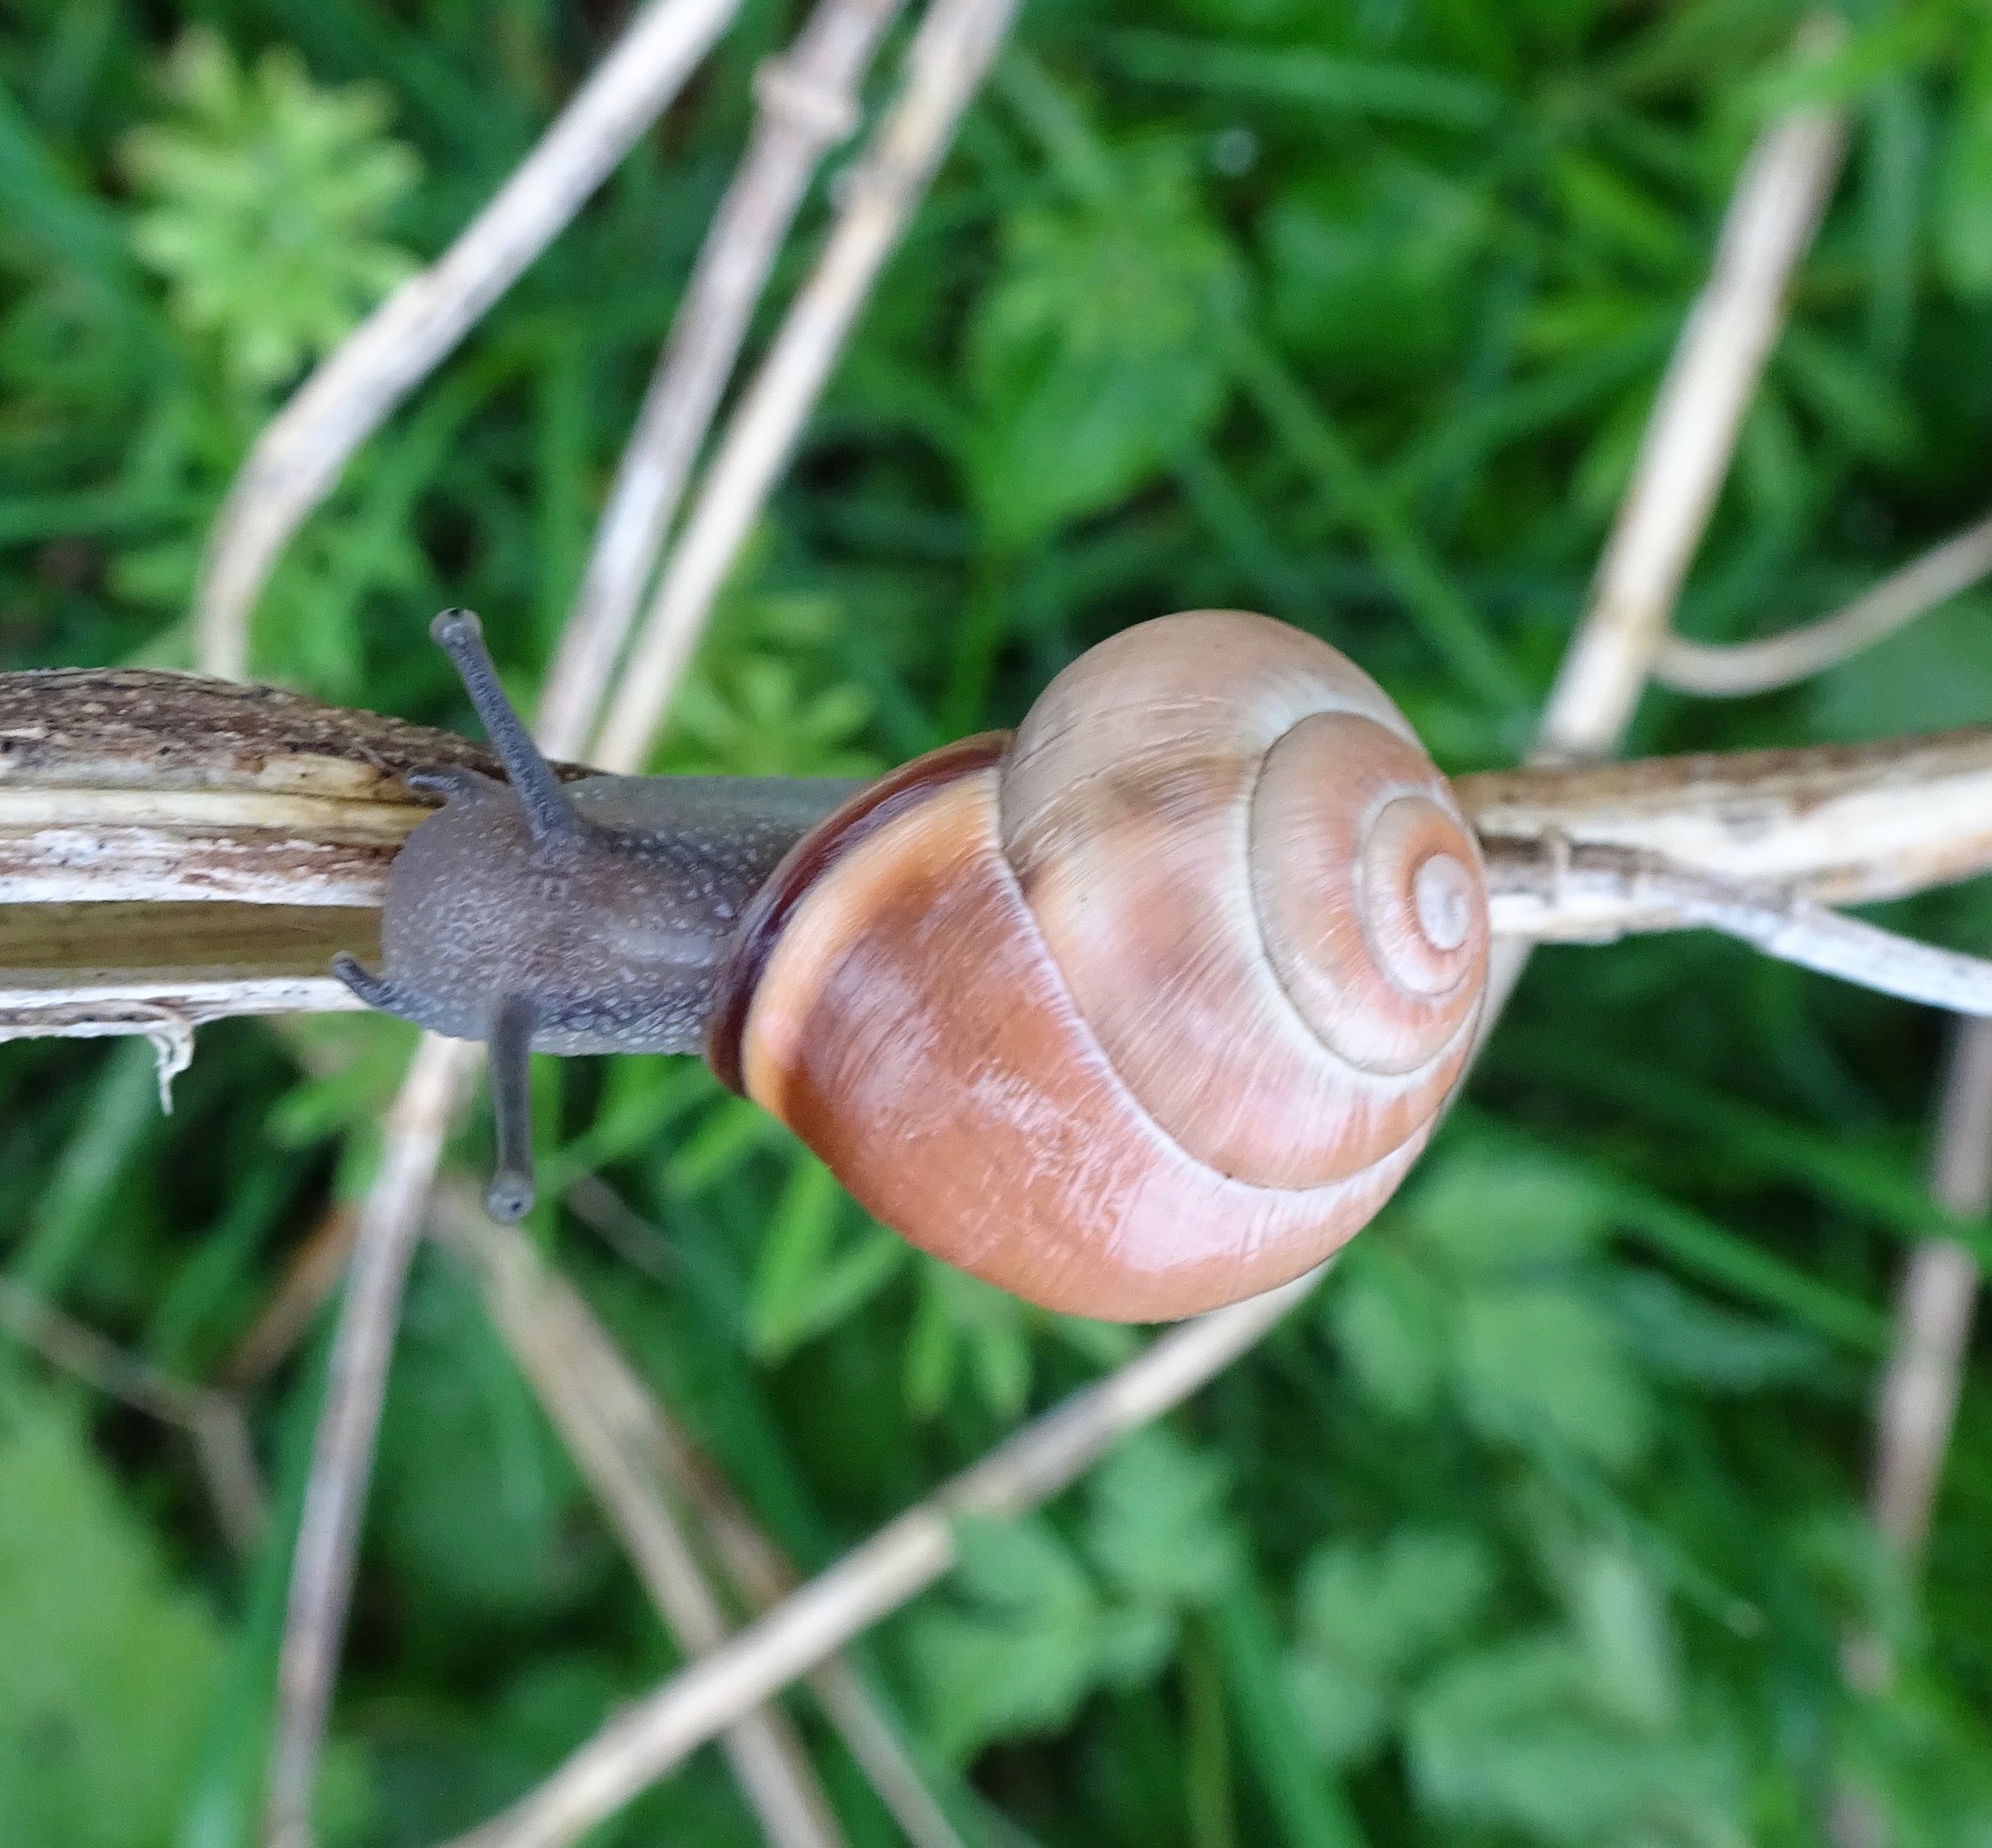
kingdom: Animalia
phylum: Mollusca
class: Gastropoda
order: Stylommatophora
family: Helicidae
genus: Cepaea
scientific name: Cepaea nemoralis
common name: Grovesnail
